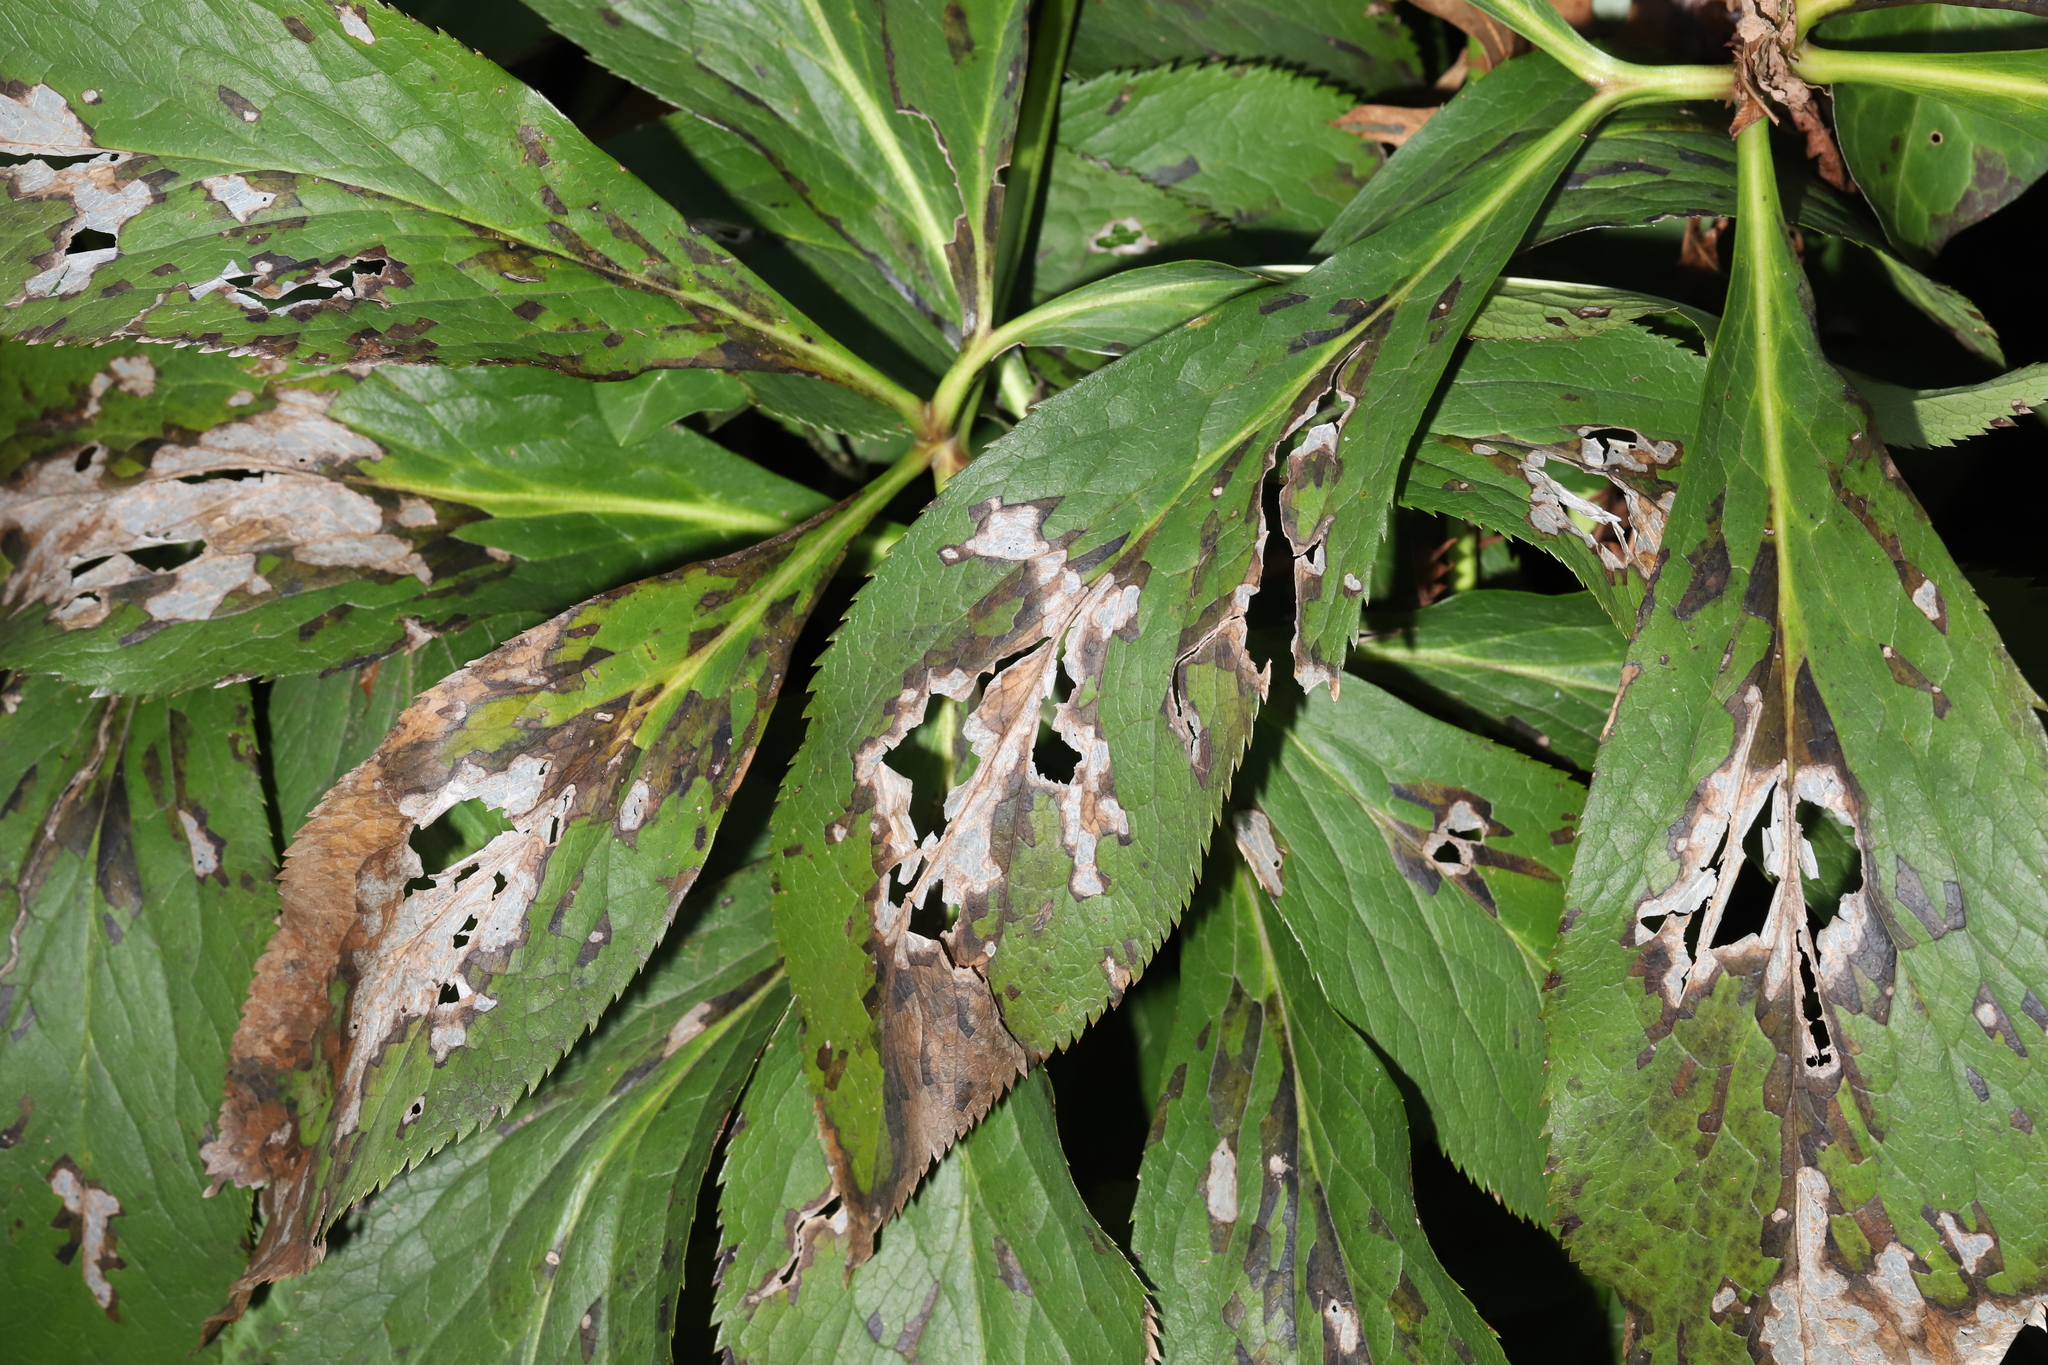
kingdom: Fungi
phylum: Ascomycota
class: Dothideomycetes
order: Pleosporales
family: Didymellaceae
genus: Microsphaeropsis
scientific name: Microsphaeropsis hellebori
